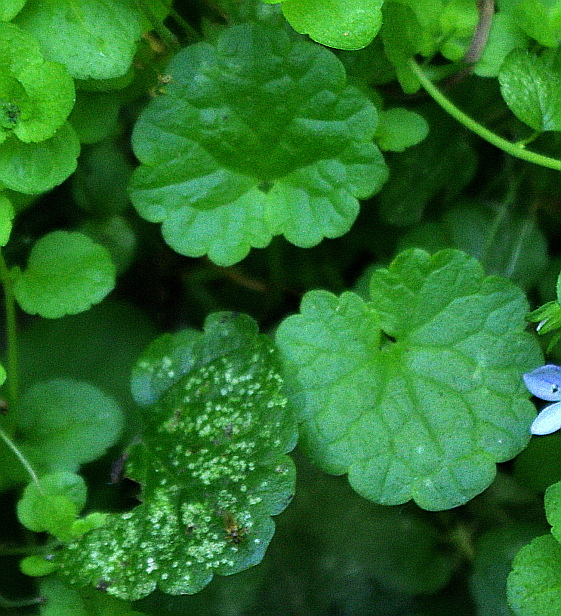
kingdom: Plantae
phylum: Tracheophyta
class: Magnoliopsida
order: Lamiales
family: Lamiaceae
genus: Glechoma
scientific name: Glechoma hederacea
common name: Ground ivy
